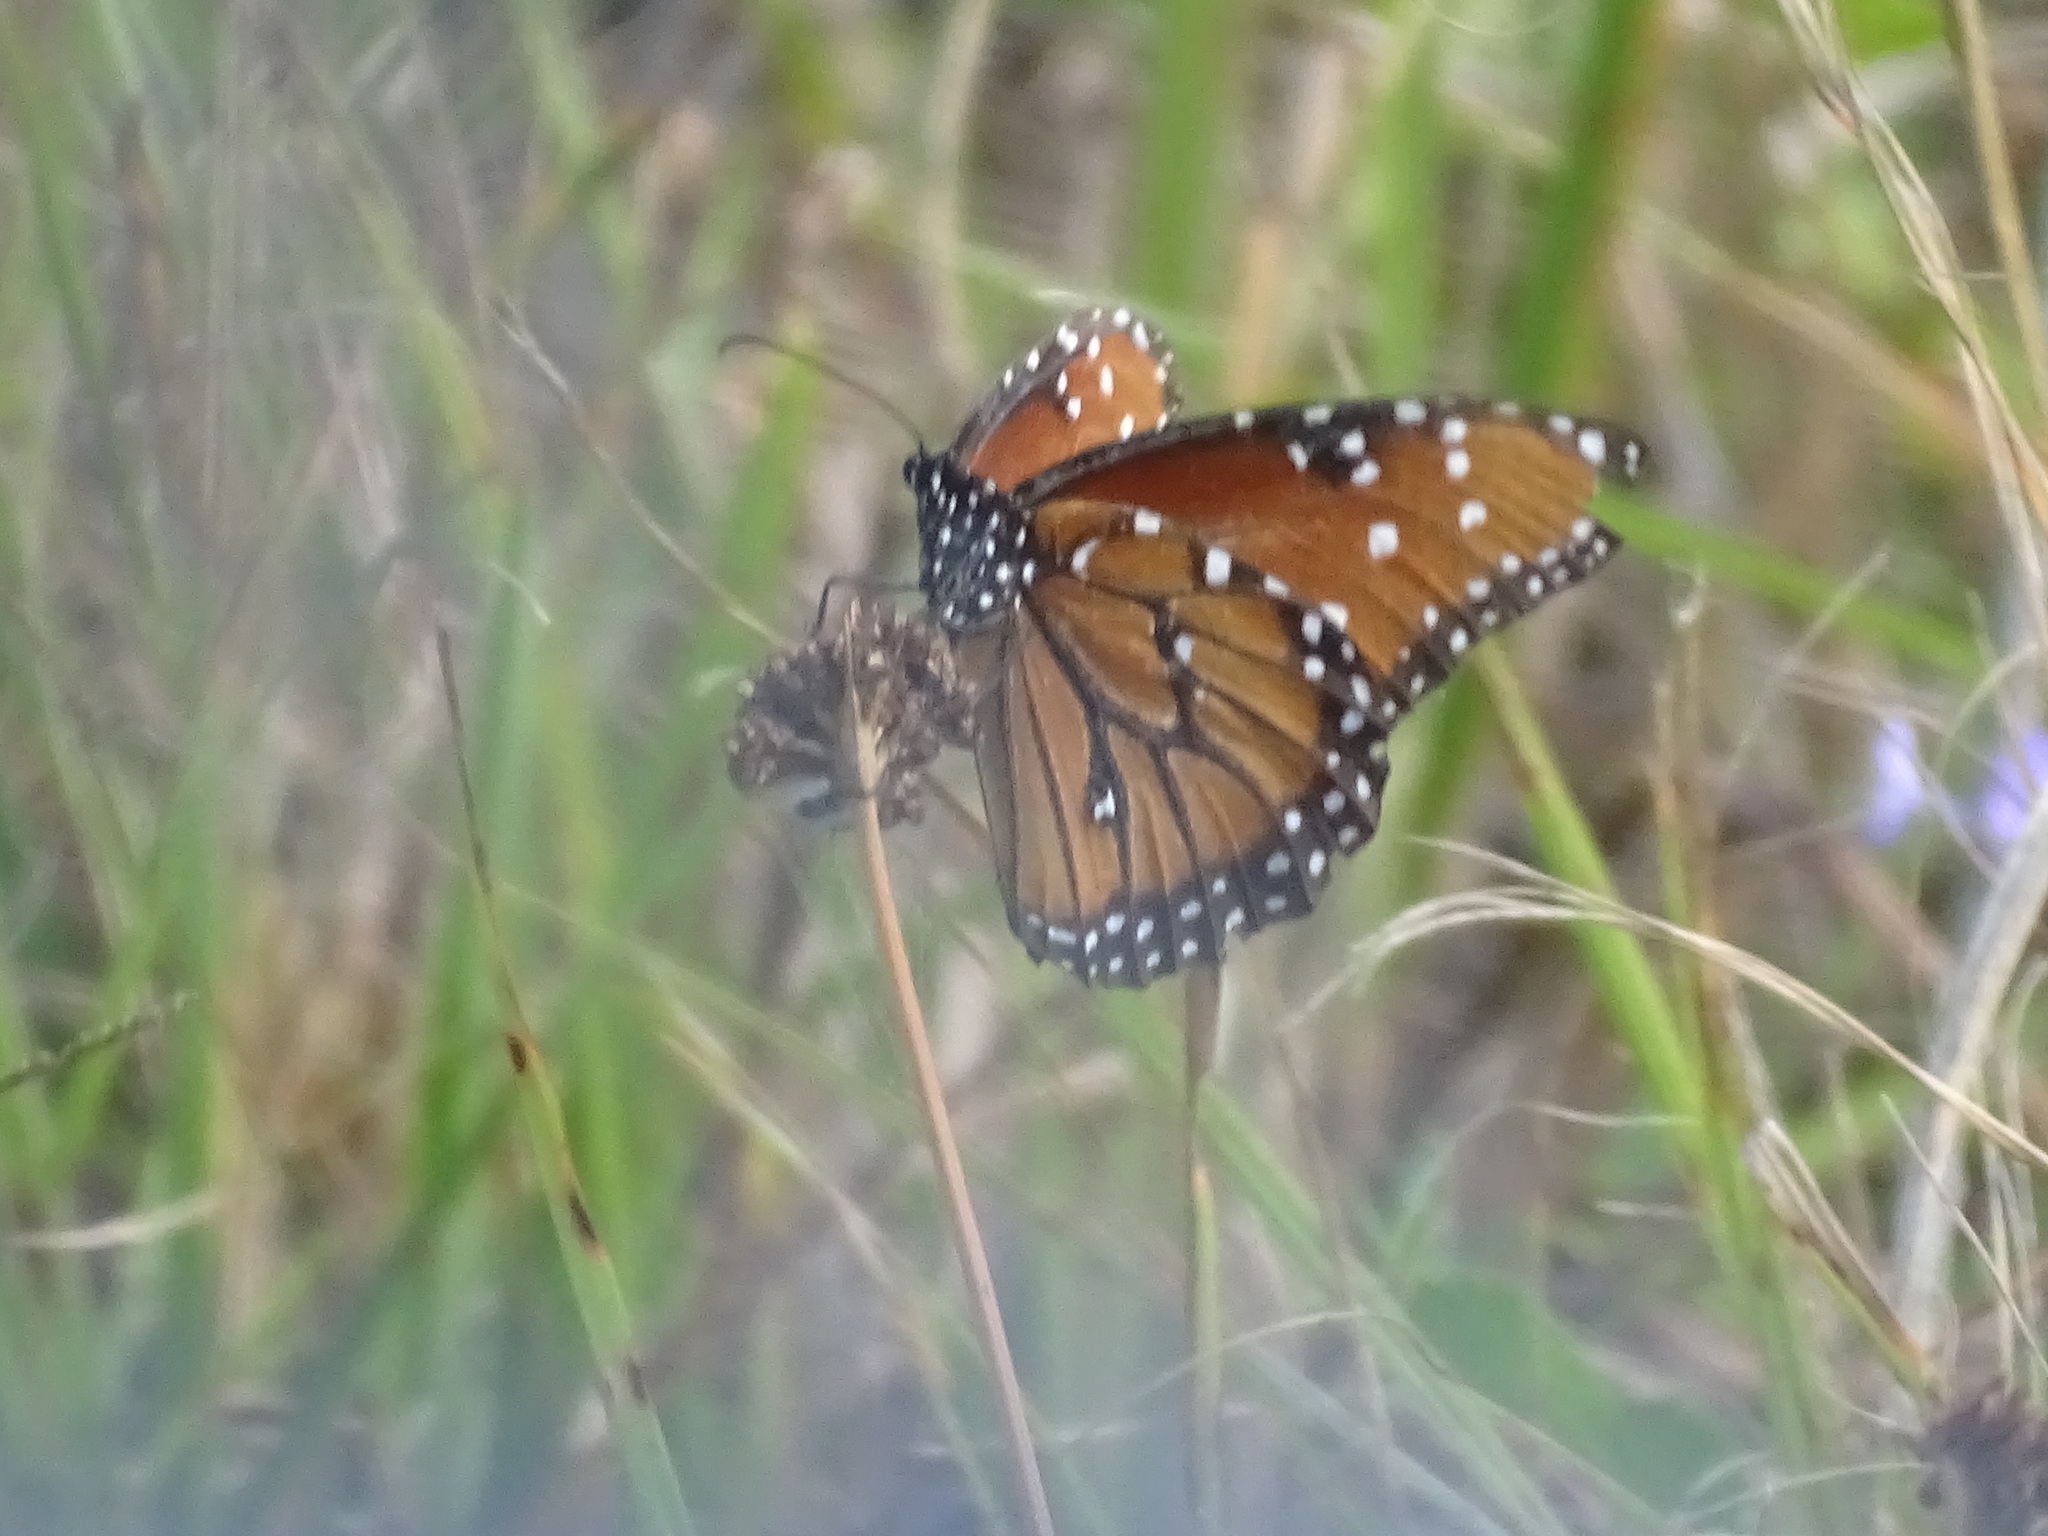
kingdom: Animalia
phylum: Arthropoda
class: Insecta
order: Lepidoptera
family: Nymphalidae
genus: Danaus
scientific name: Danaus gilippus
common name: Queen
